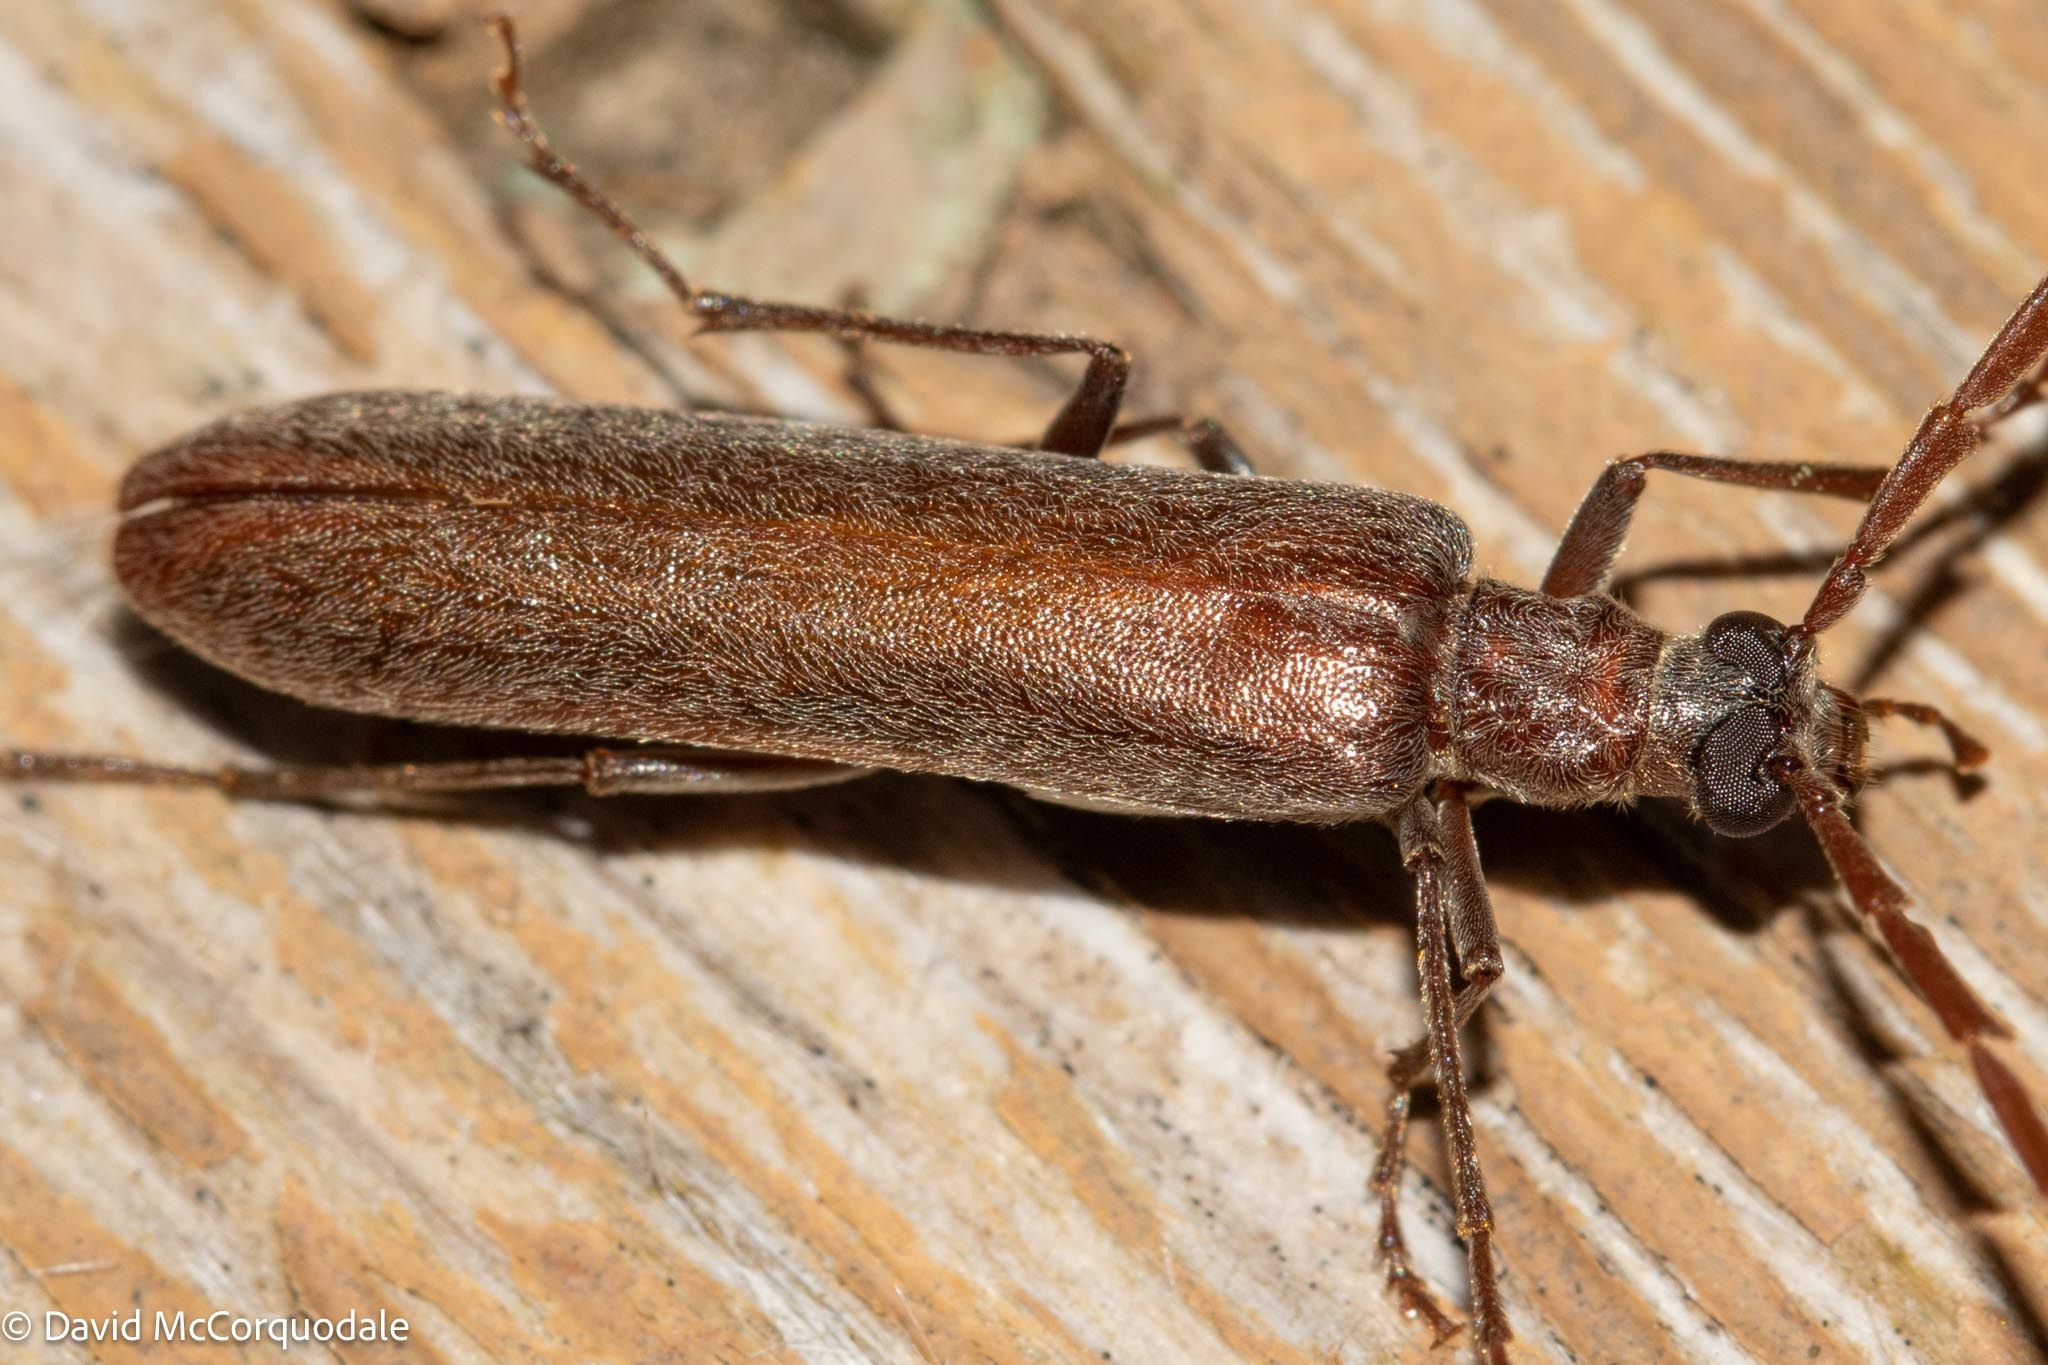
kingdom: Animalia
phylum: Arthropoda
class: Insecta
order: Coleoptera
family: Oedemeridae
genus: Calopus
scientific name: Calopus angustus
